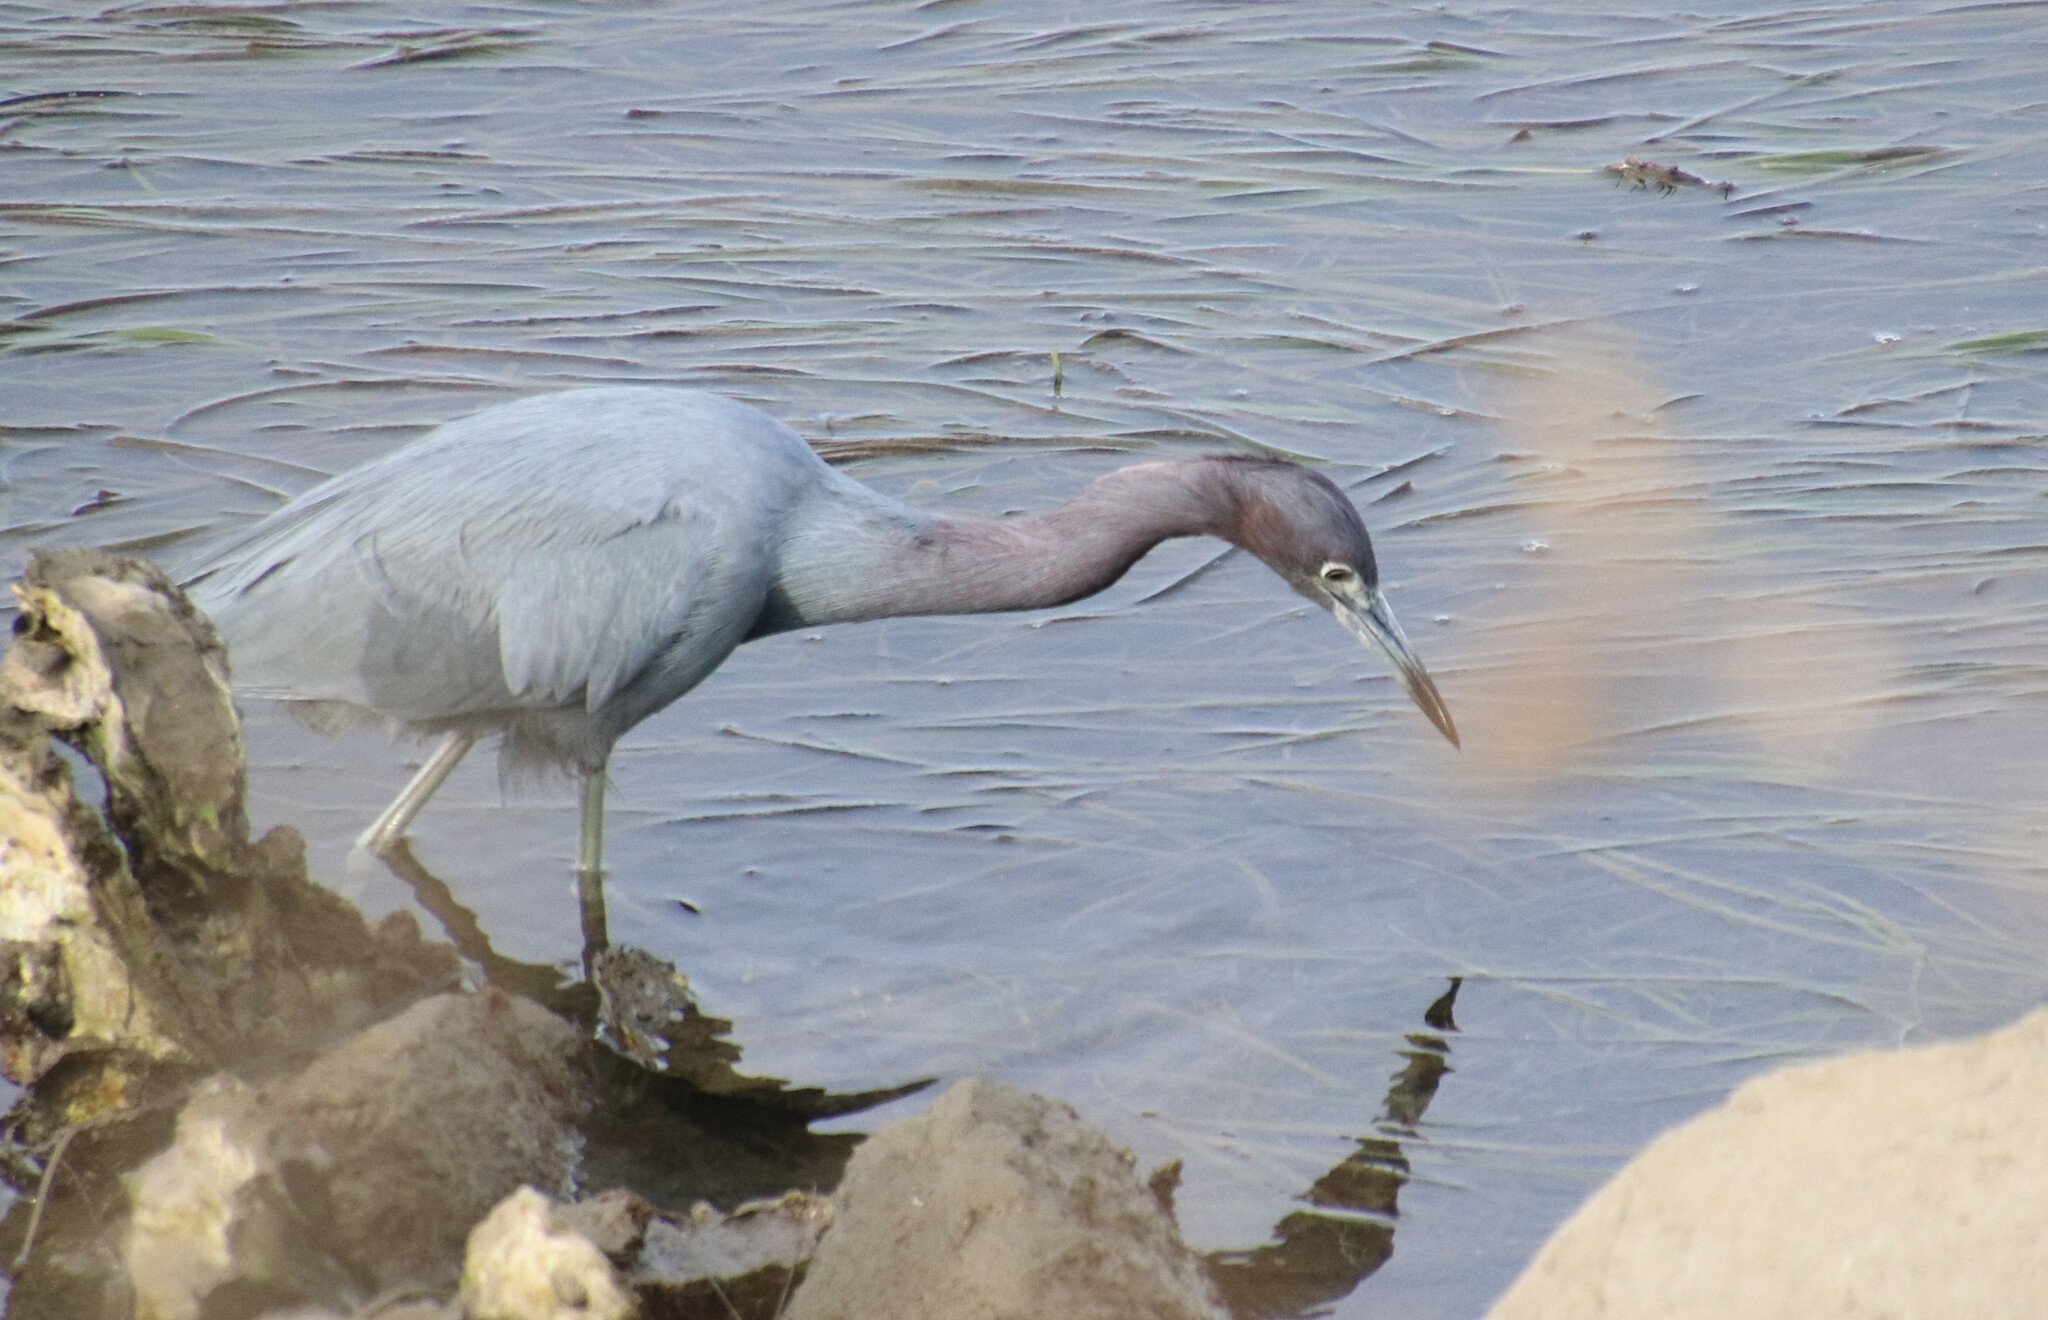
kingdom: Animalia
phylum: Chordata
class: Aves
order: Pelecaniformes
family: Ardeidae
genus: Egretta
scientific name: Egretta caerulea
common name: Little blue heron
